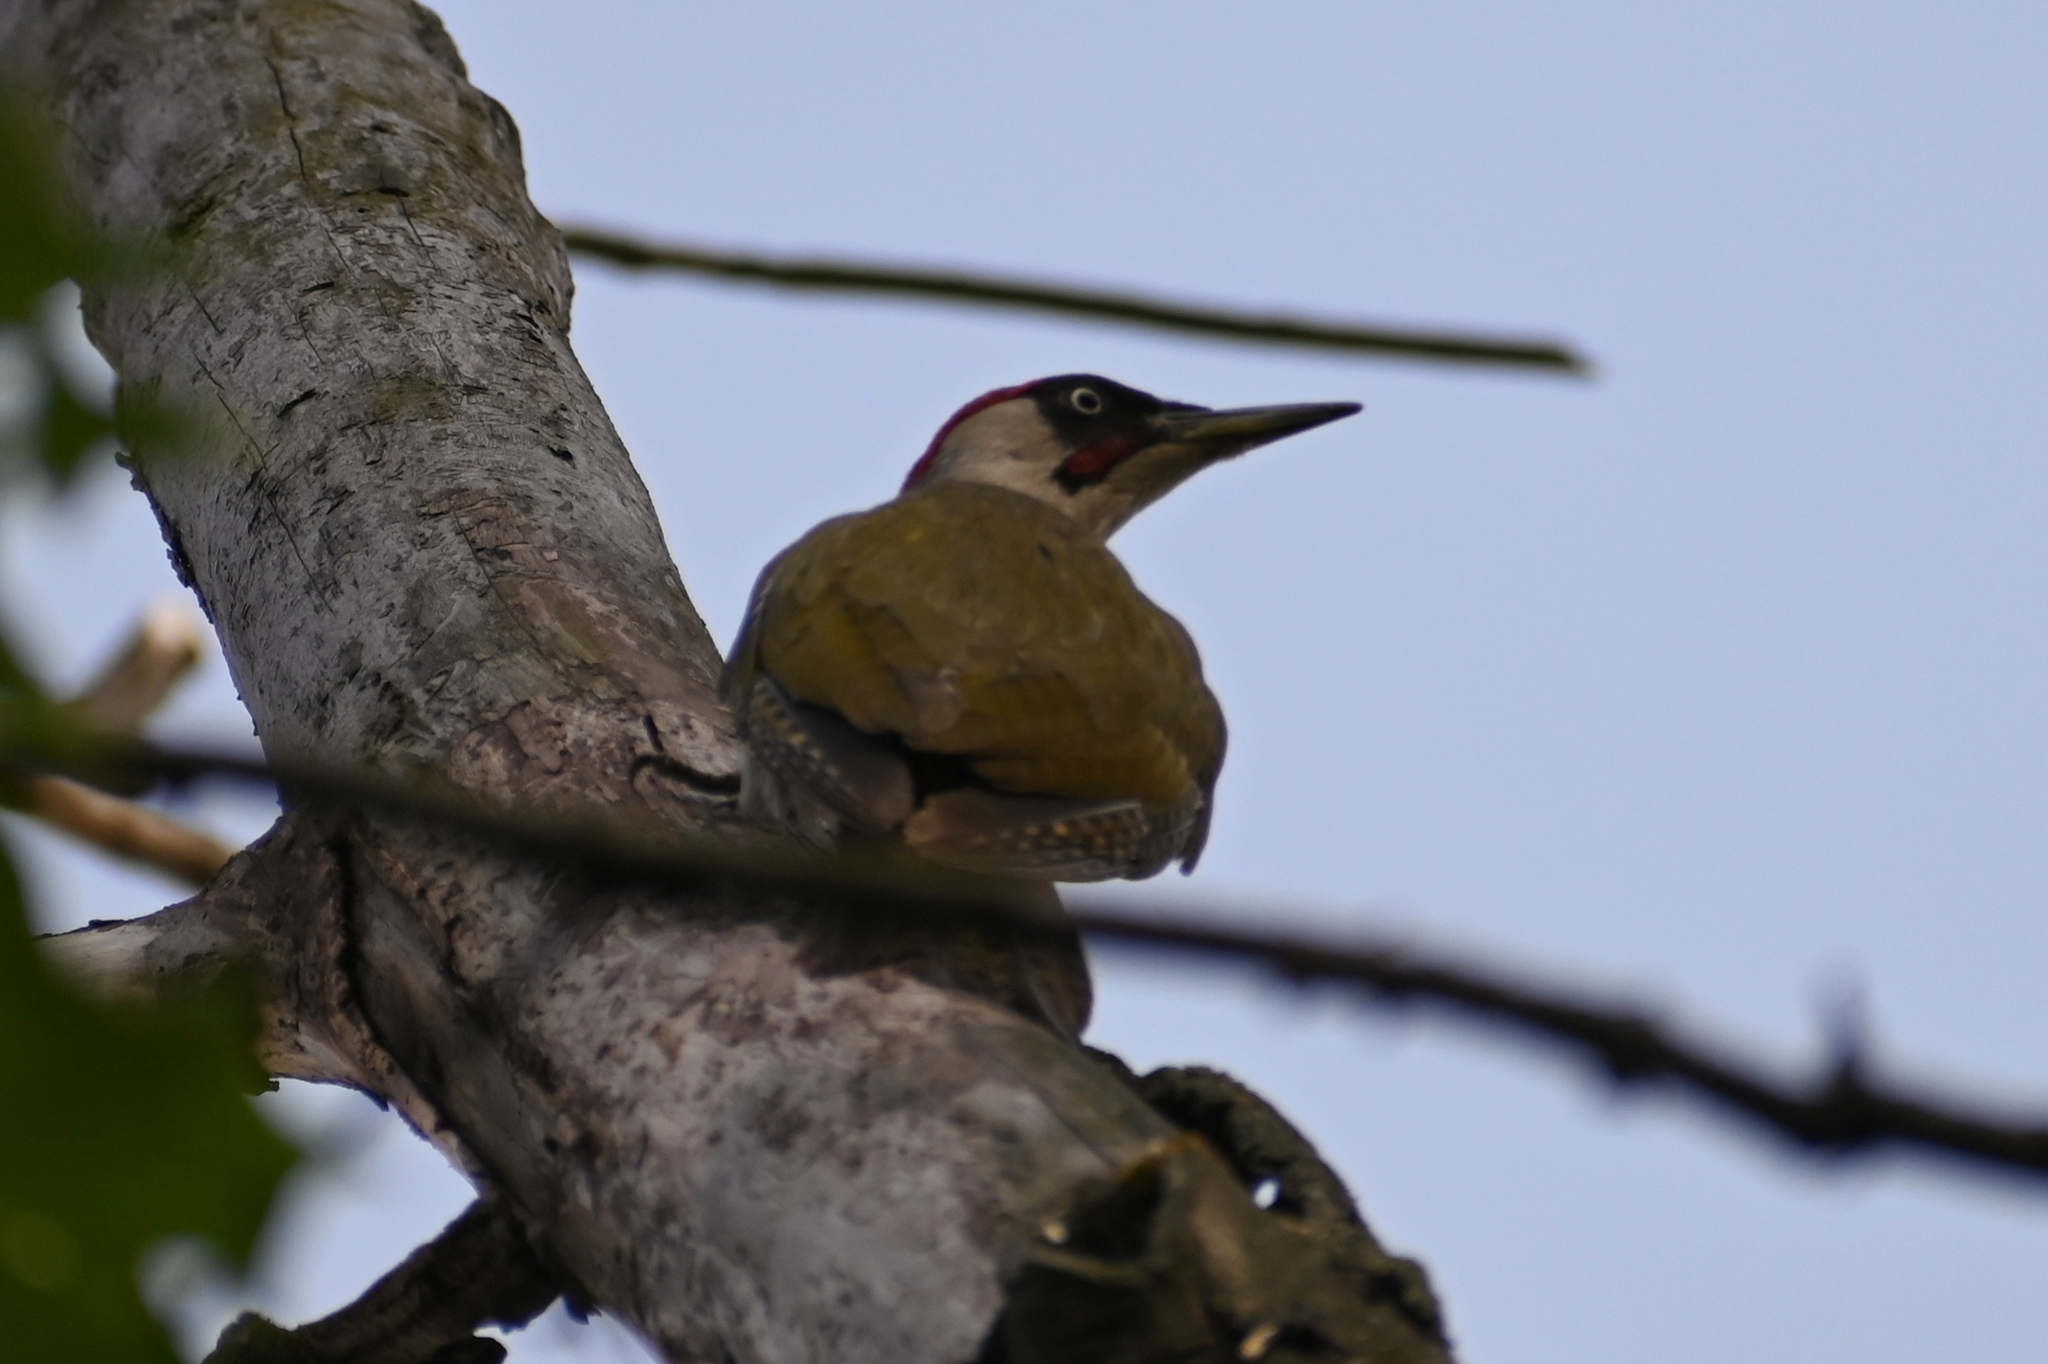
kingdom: Animalia
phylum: Chordata
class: Aves
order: Piciformes
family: Picidae
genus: Picus
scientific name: Picus viridis
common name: European green woodpecker
